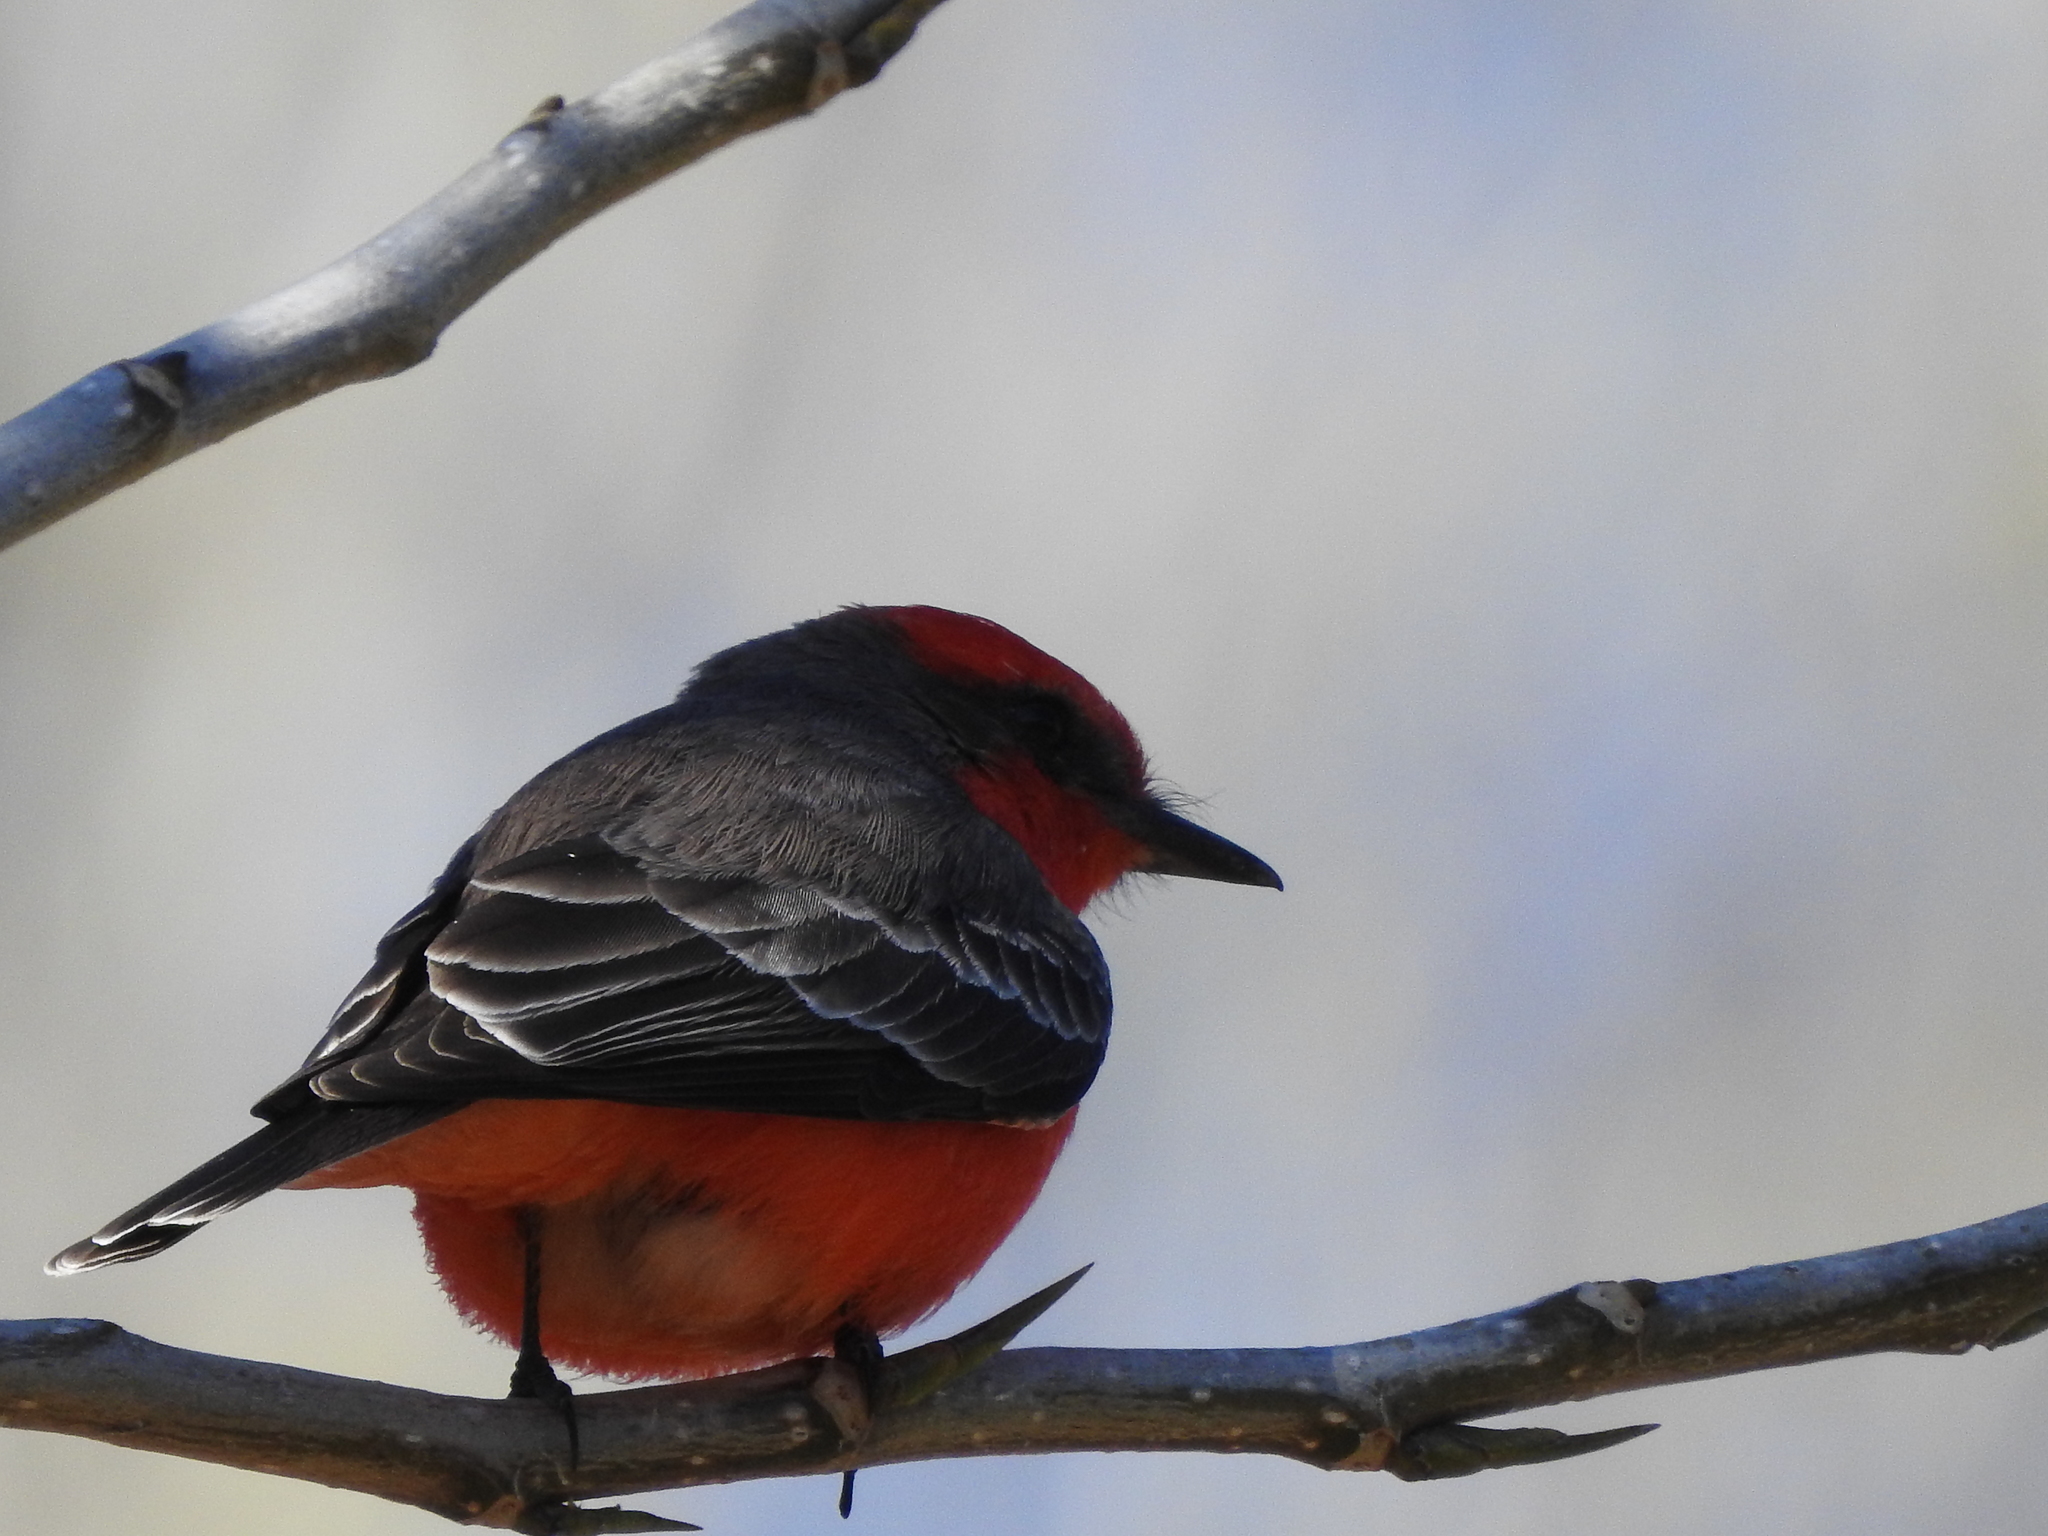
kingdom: Animalia
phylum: Chordata
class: Aves
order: Passeriformes
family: Tyrannidae
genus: Pyrocephalus
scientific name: Pyrocephalus rubinus
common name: Vermilion flycatcher
